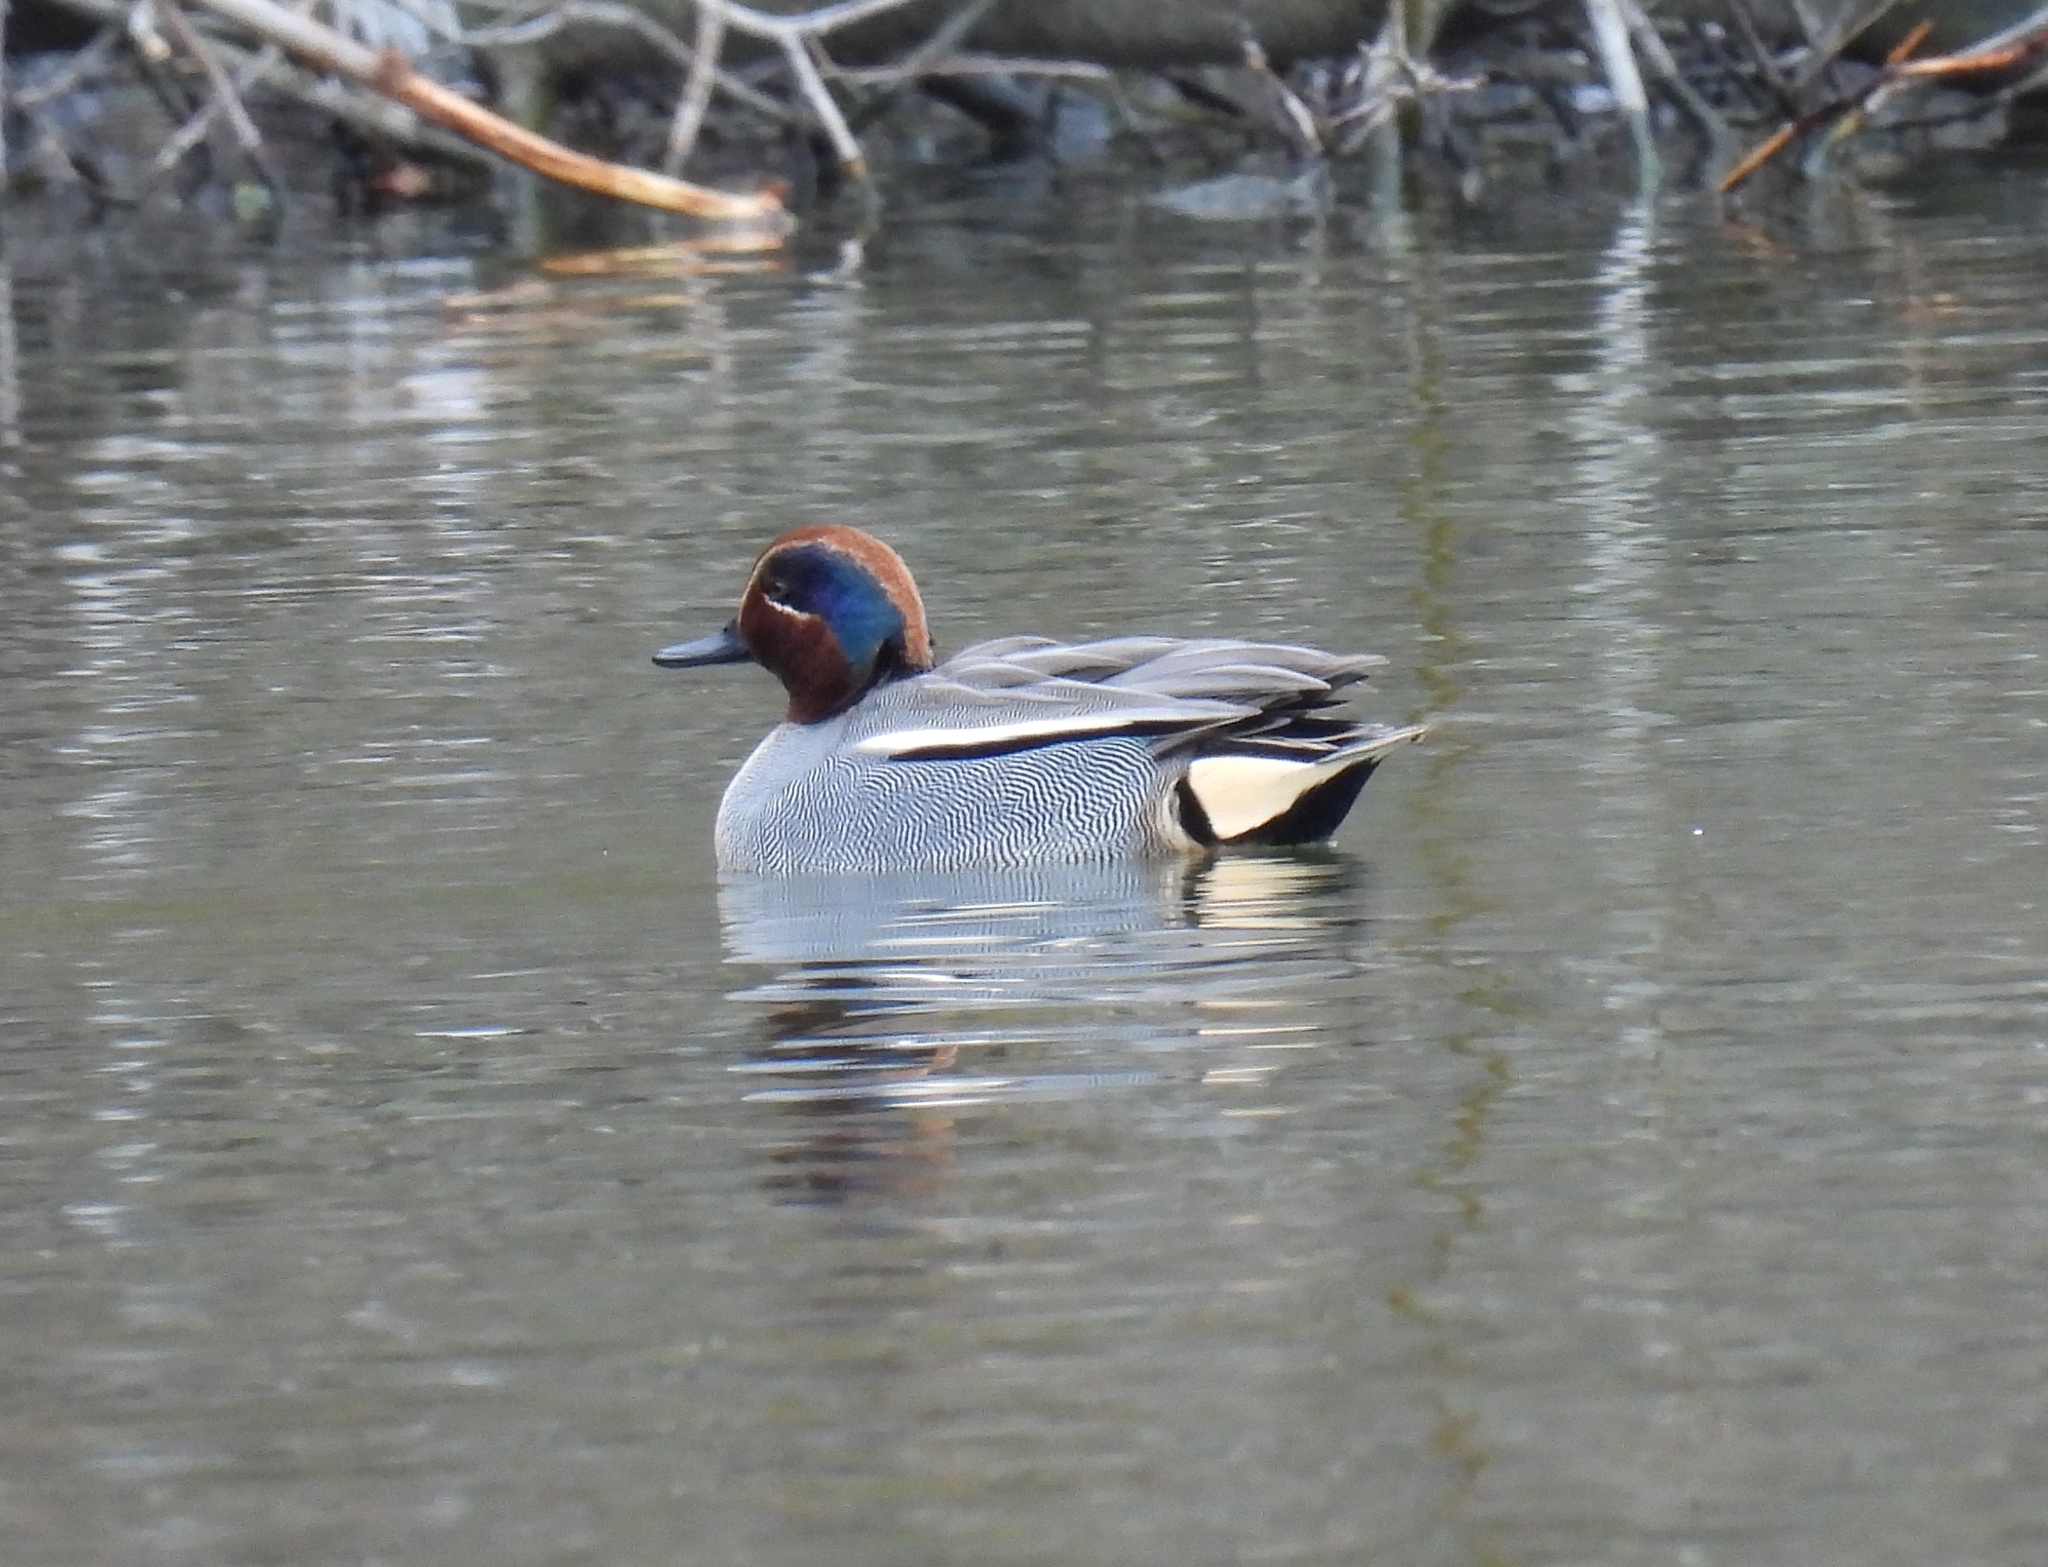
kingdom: Animalia
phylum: Chordata
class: Aves
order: Anseriformes
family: Anatidae
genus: Anas
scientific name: Anas crecca
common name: Eurasian teal
